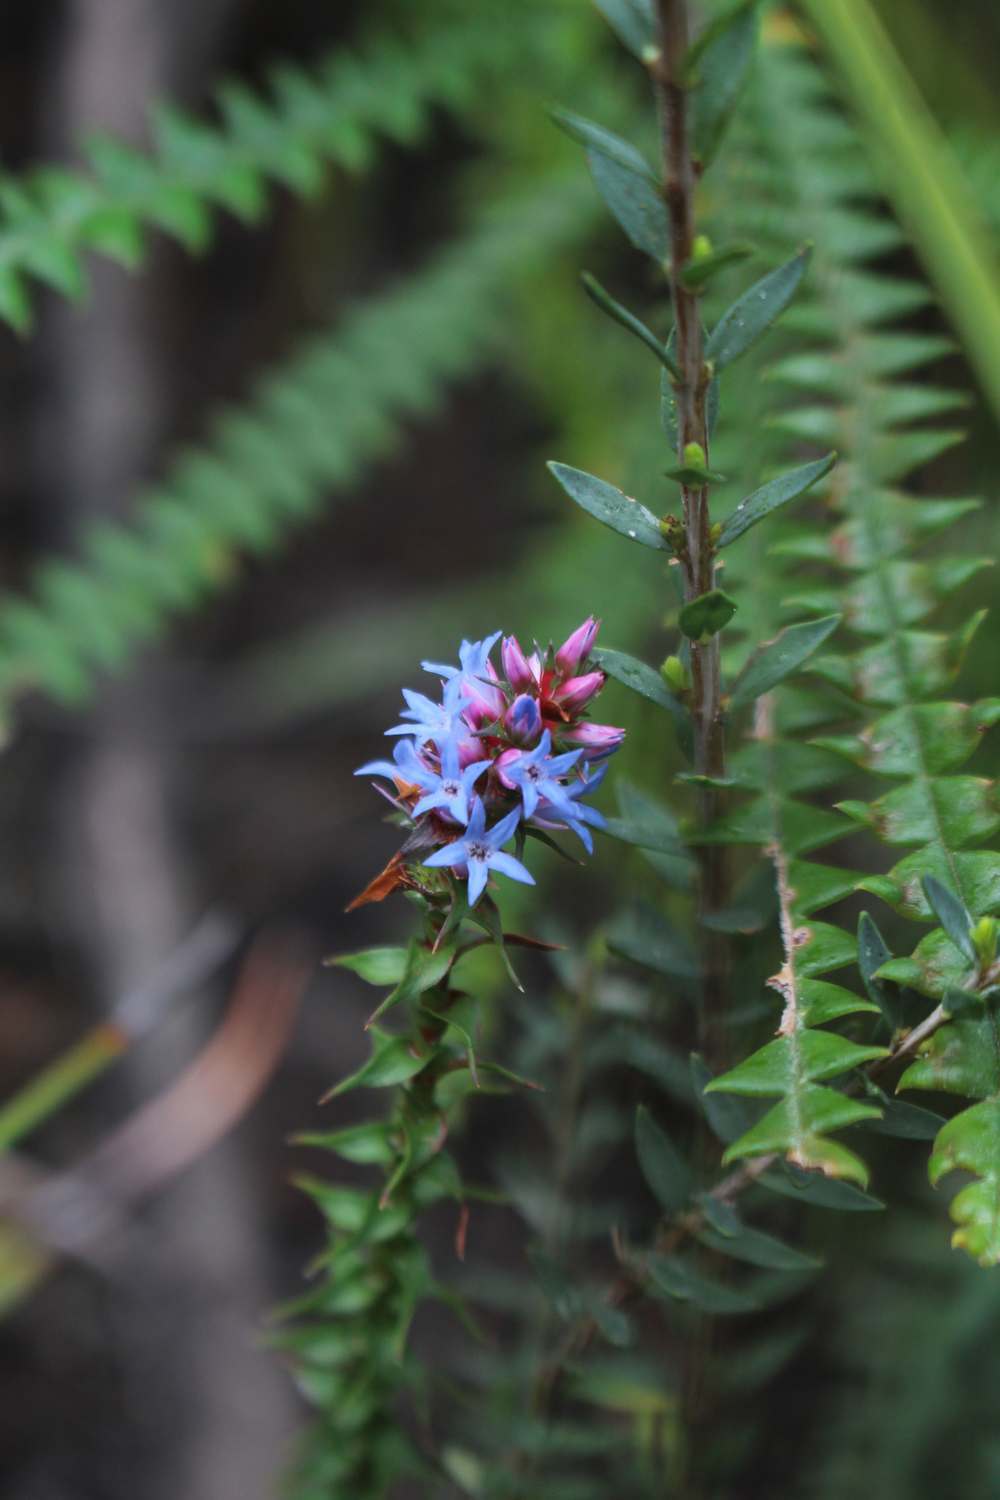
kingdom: Plantae
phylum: Tracheophyta
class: Magnoliopsida
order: Ericales
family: Ericaceae
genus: Andersonia
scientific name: Andersonia lehmanniana
